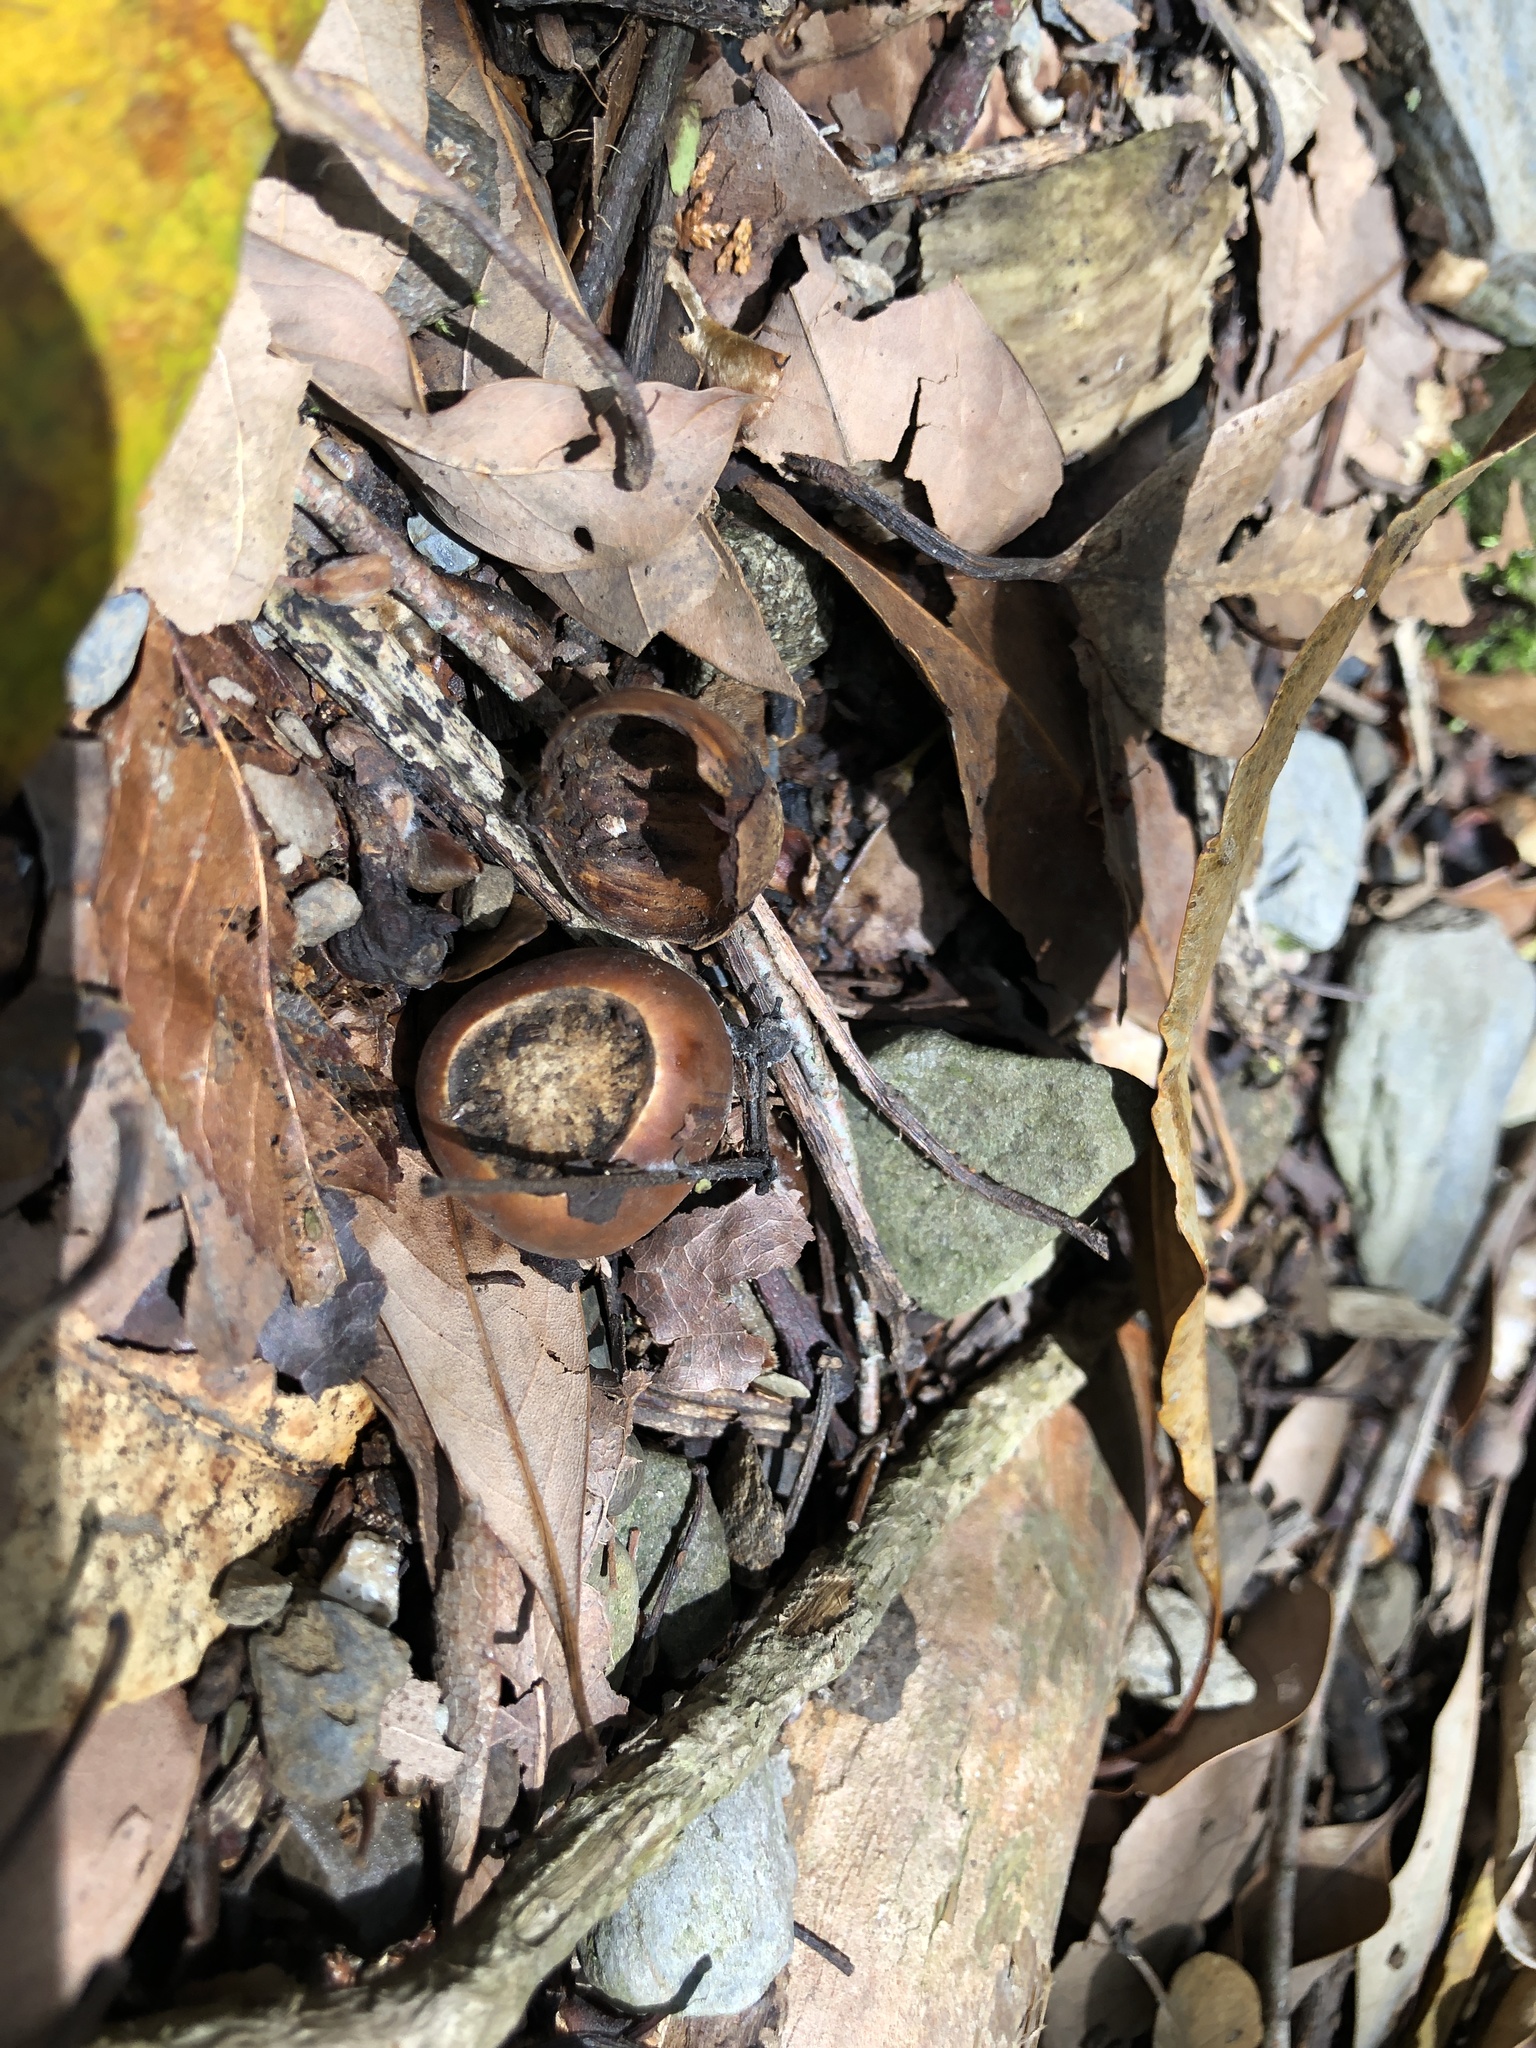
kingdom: Plantae
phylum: Tracheophyta
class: Magnoliopsida
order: Fagales
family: Fagaceae
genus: Lithocarpus
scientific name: Lithocarpus kawakamii
